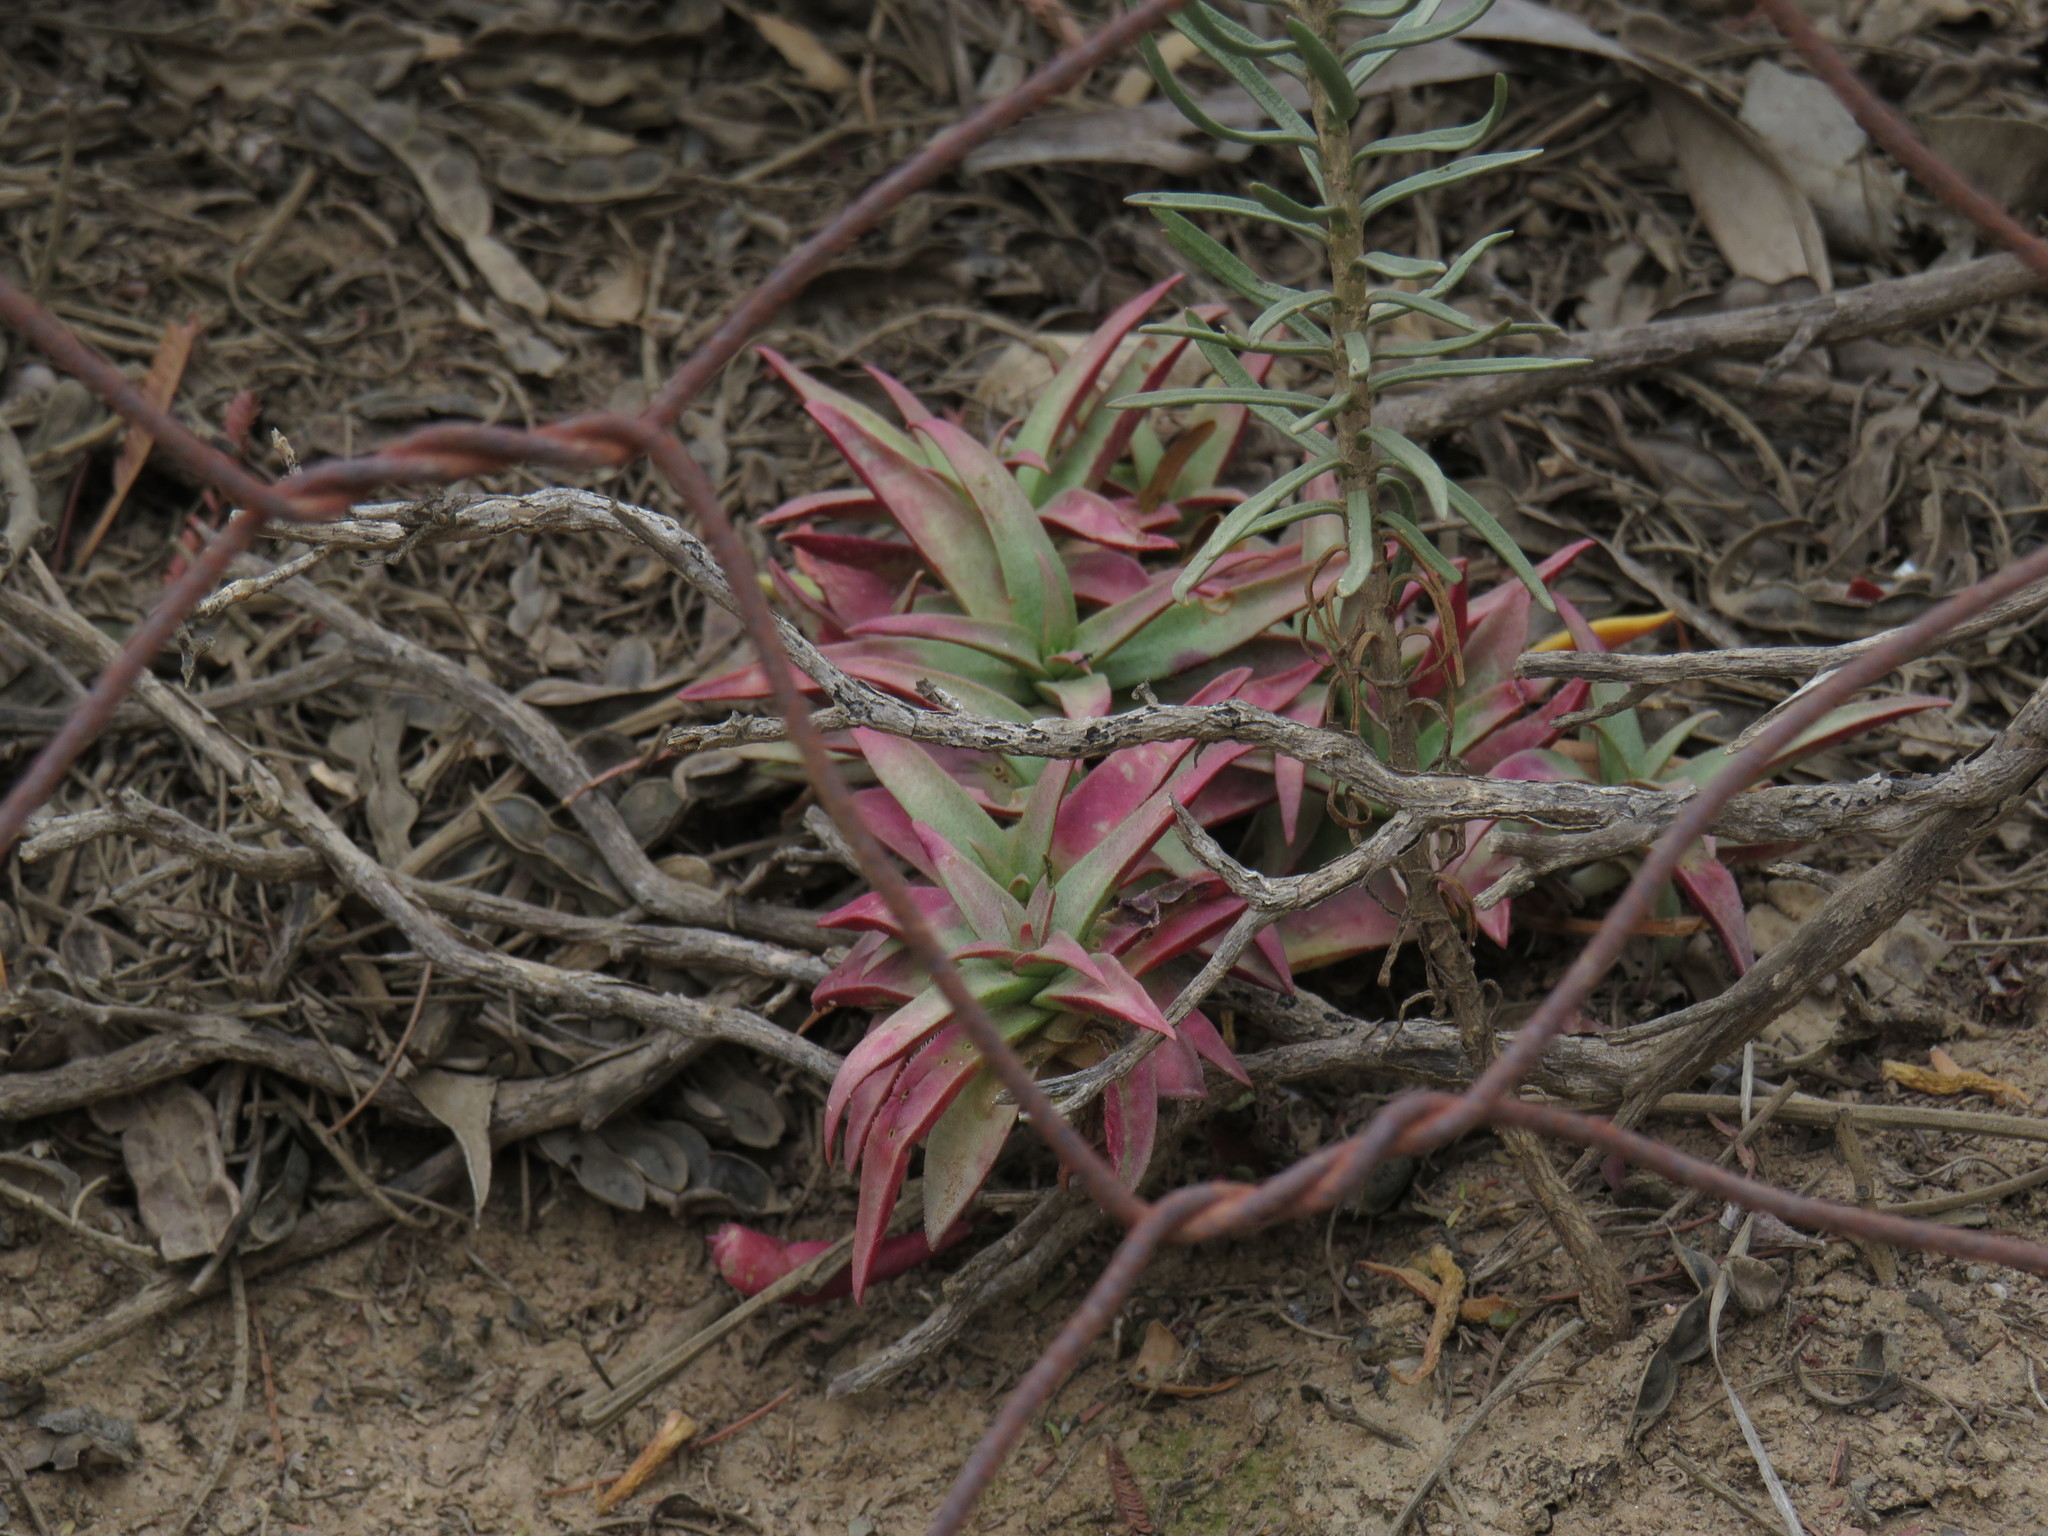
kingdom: Plantae
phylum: Tracheophyta
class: Magnoliopsida
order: Saxifragales
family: Crassulaceae
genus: Crassula
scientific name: Crassula capitella
